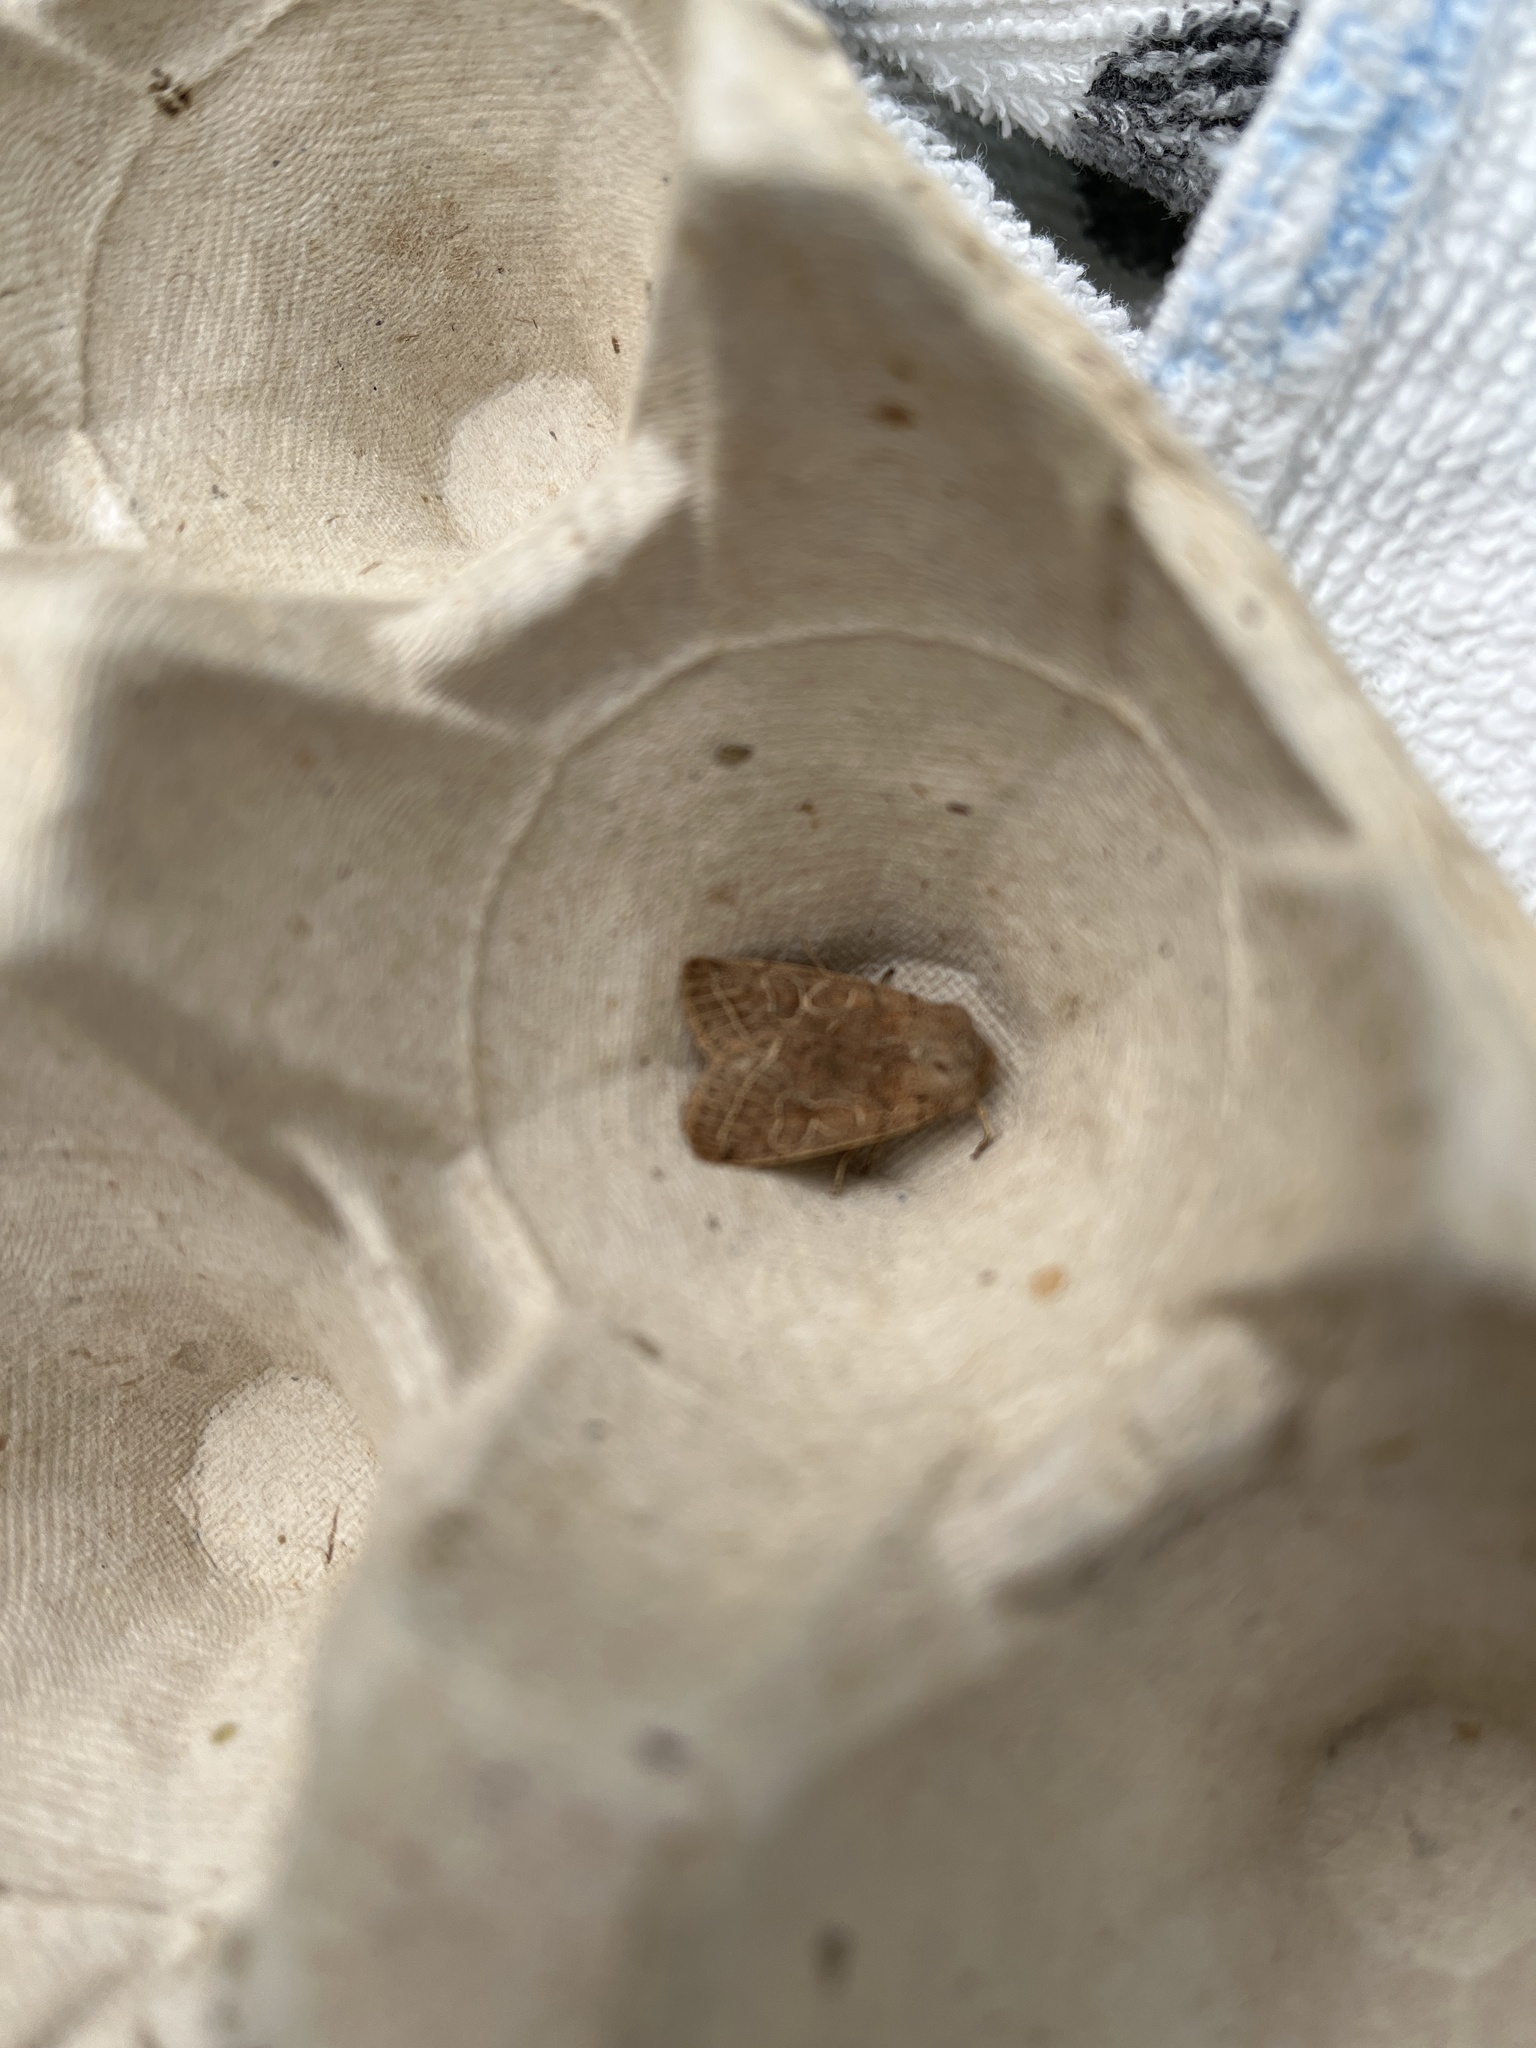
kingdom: Animalia
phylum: Arthropoda
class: Insecta
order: Lepidoptera
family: Noctuidae
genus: Orthosia
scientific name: Orthosia cerasi
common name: Common quaker
